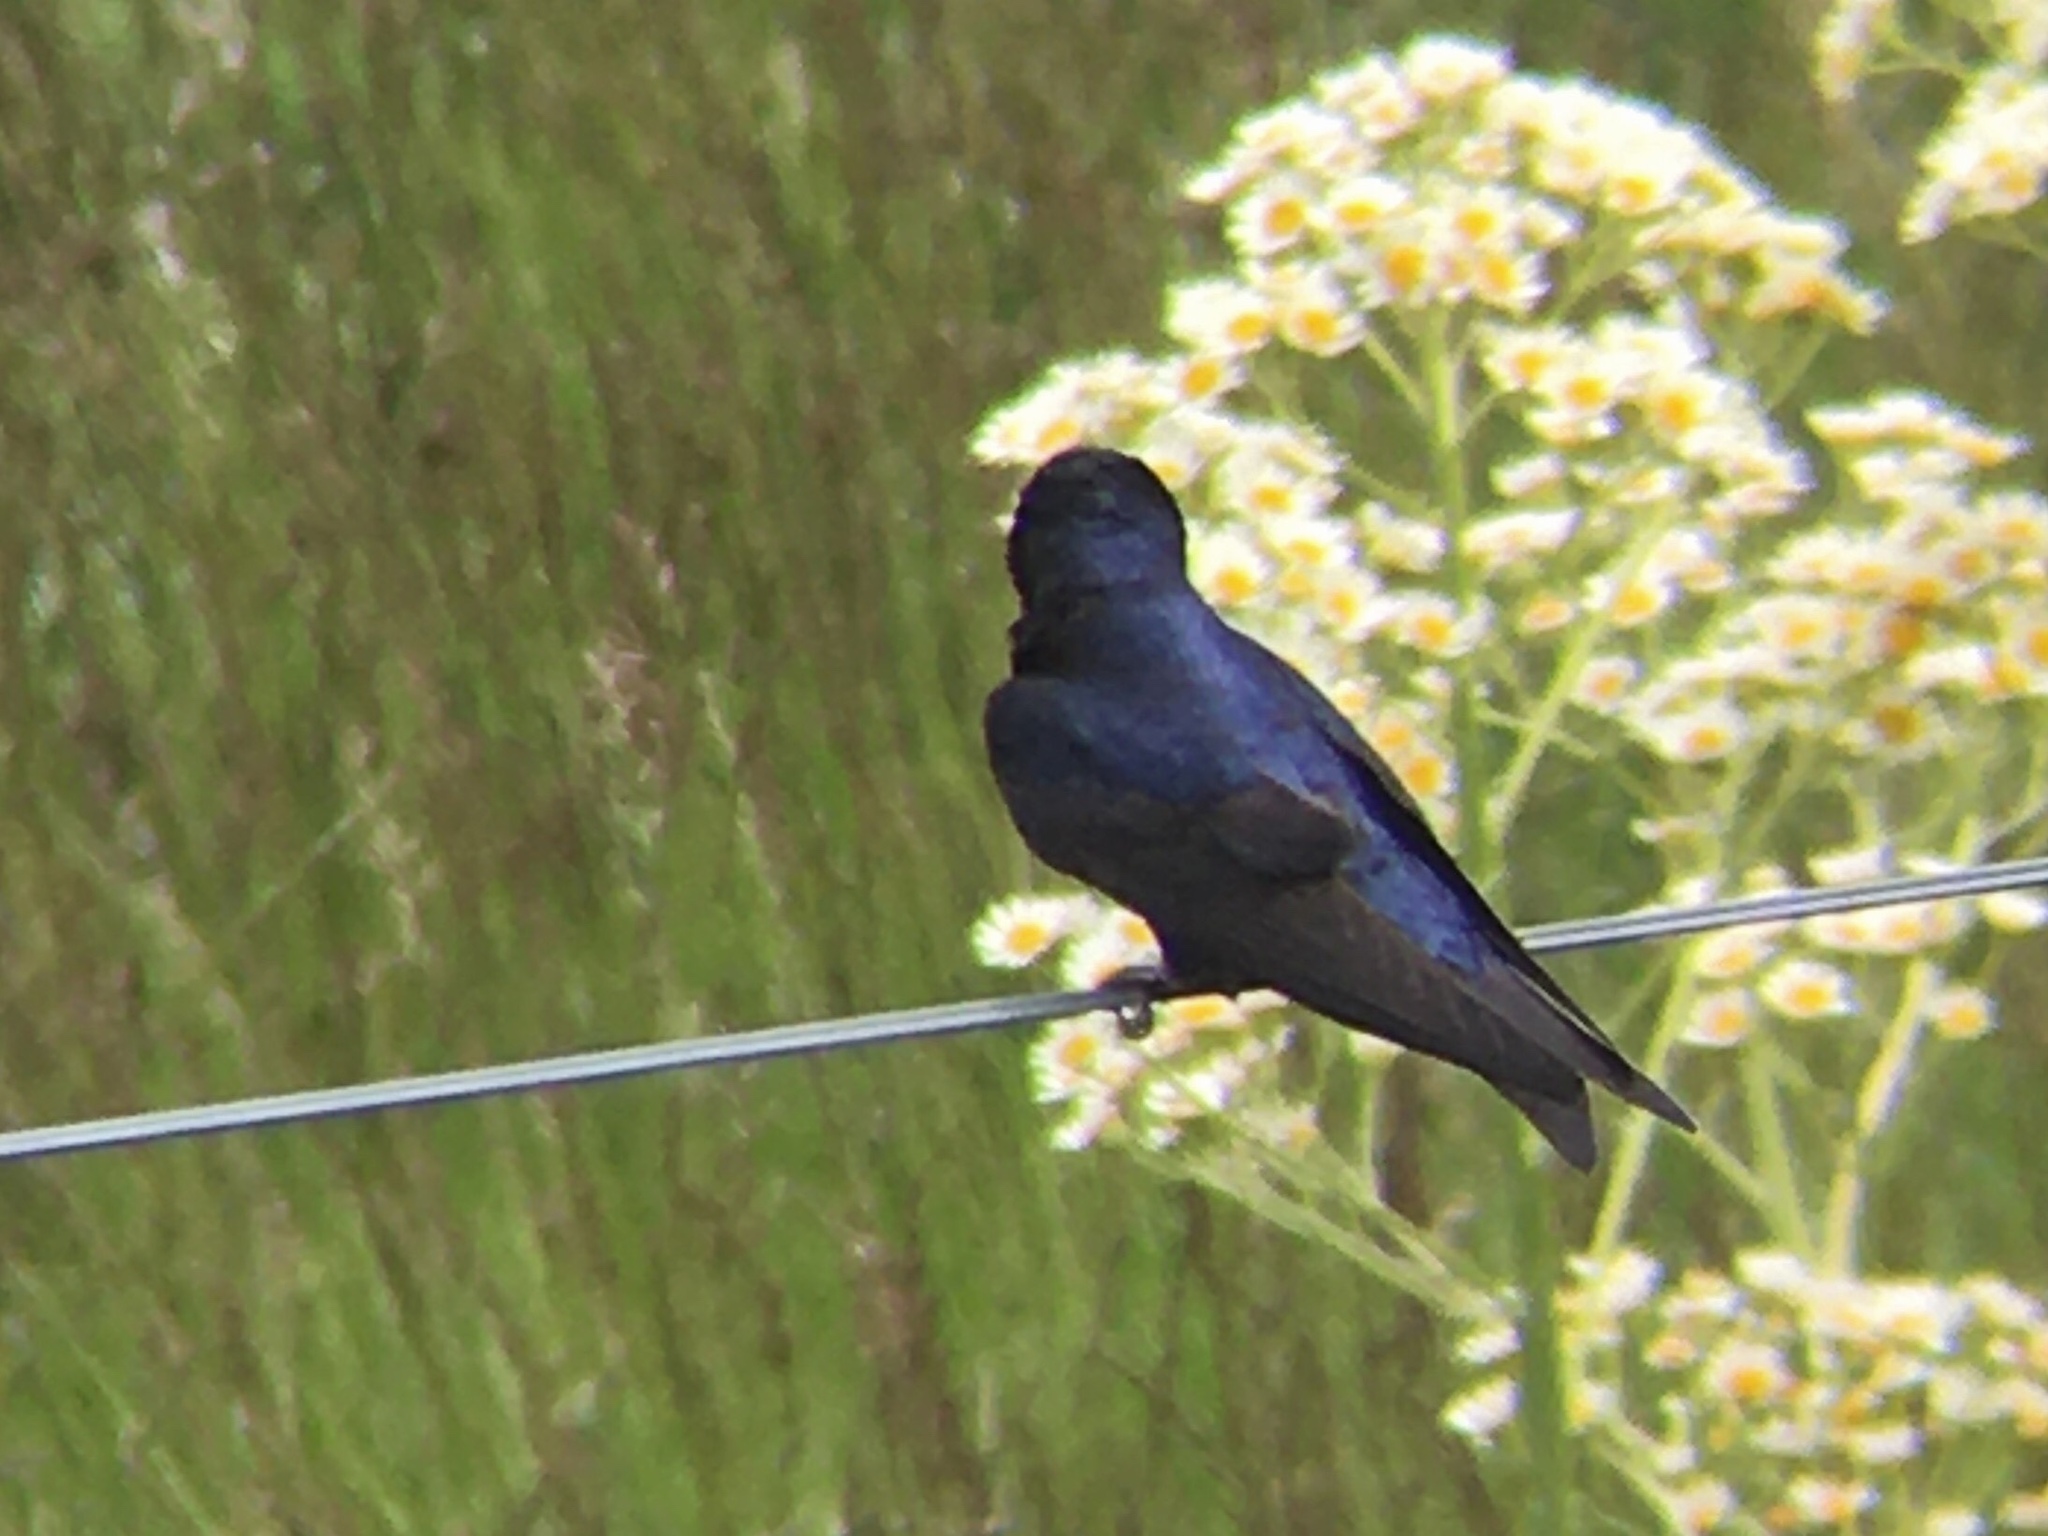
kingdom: Animalia
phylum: Chordata
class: Aves
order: Passeriformes
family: Hirundinidae
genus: Progne
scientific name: Progne elegans
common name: Southern martin
